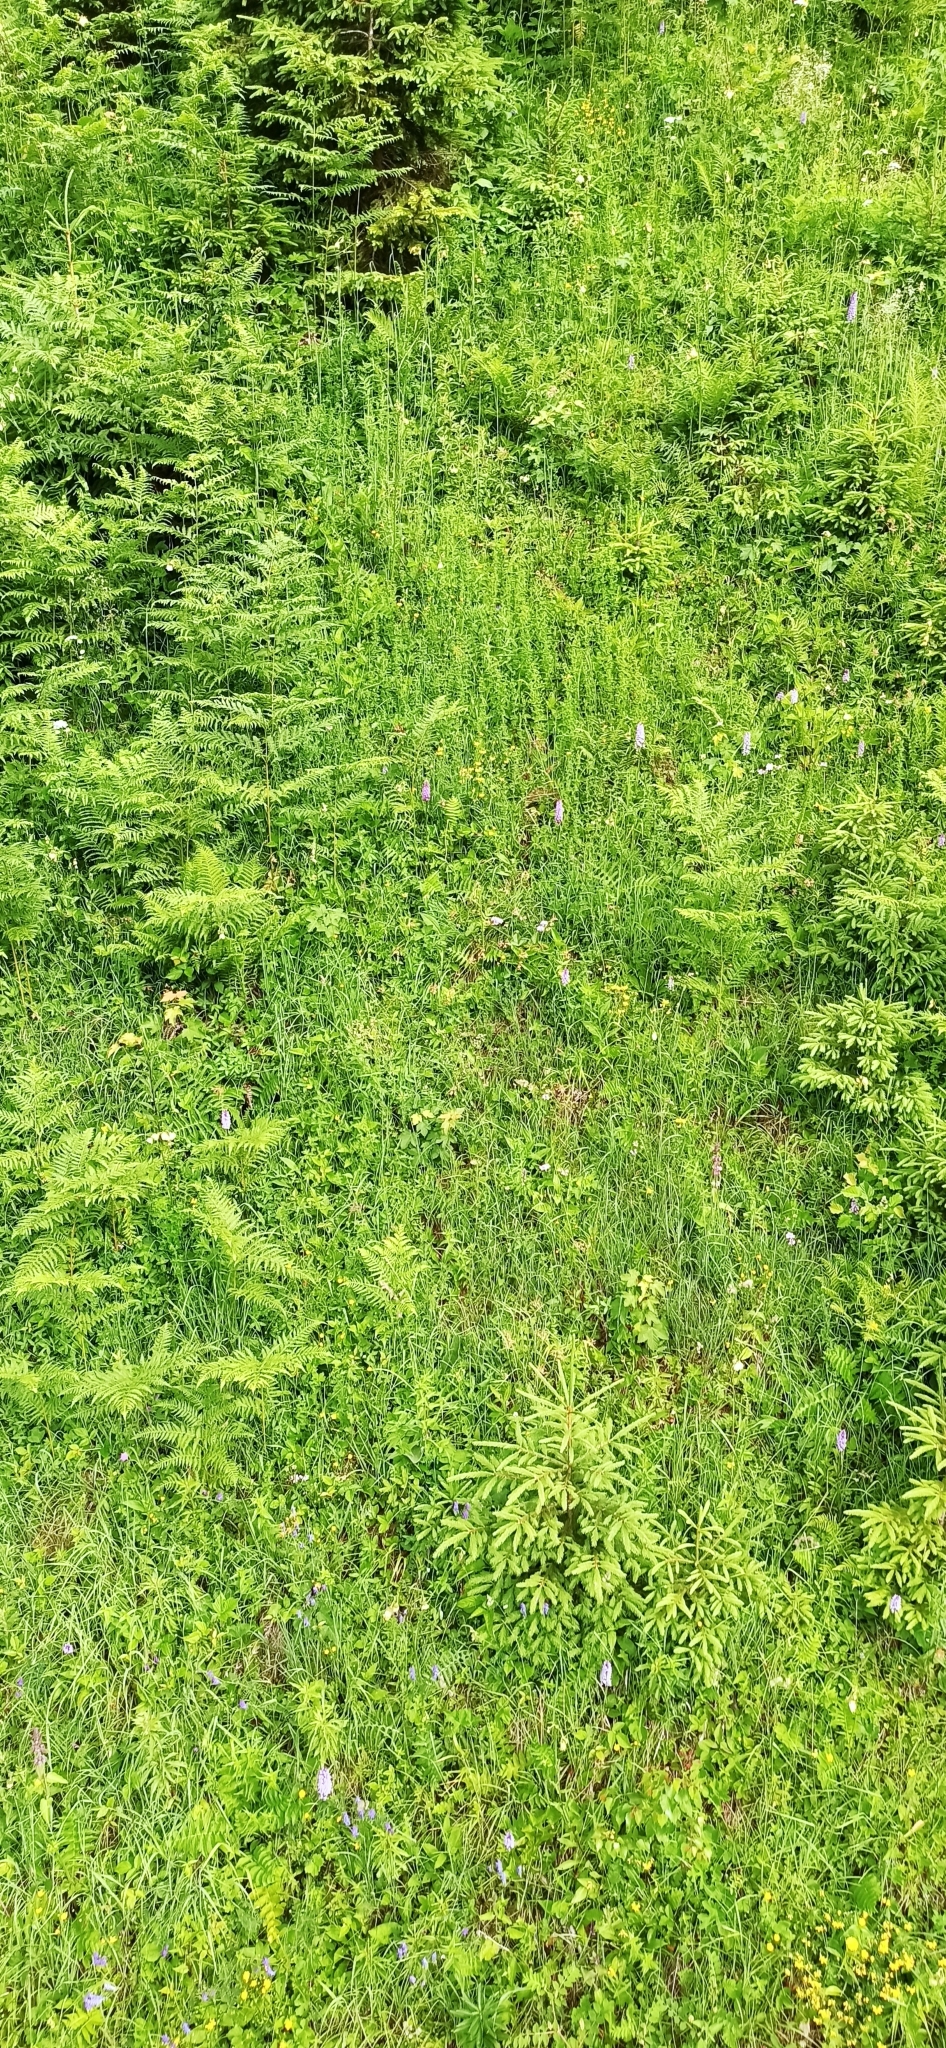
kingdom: Plantae
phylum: Tracheophyta
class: Liliopsida
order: Asparagales
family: Orchidaceae
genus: Dactylorhiza
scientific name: Dactylorhiza maculata
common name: Heath spotted-orchid
